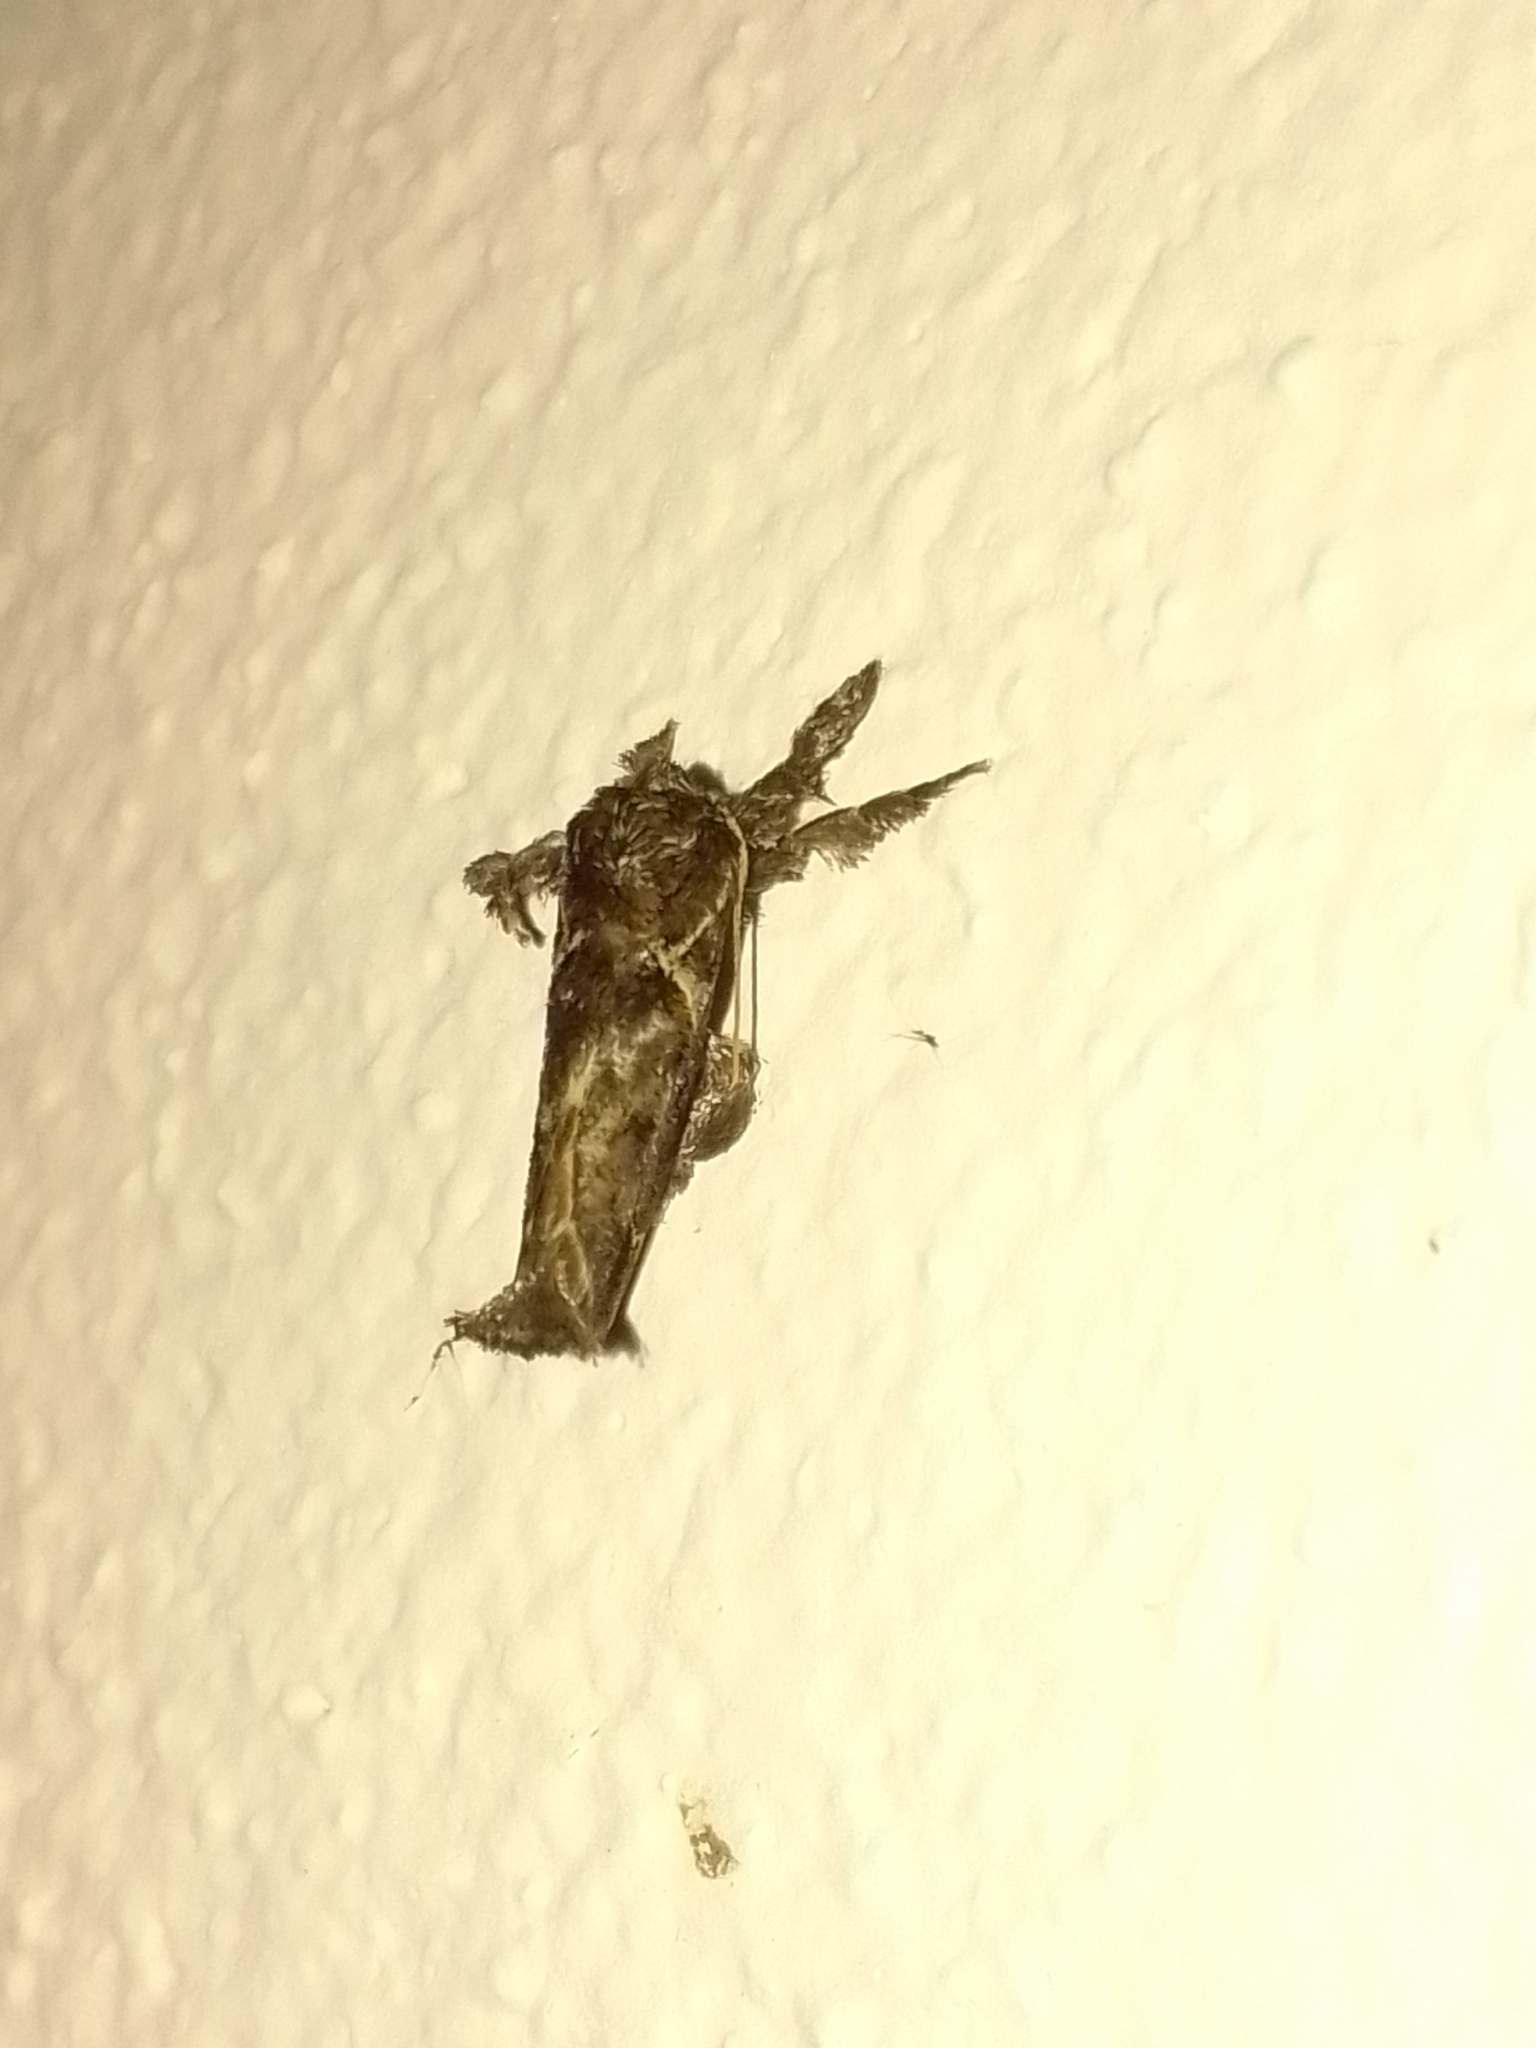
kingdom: Animalia
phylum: Arthropoda
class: Insecta
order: Lepidoptera
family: Limacodidae
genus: Euclea
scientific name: Euclea costaricana
